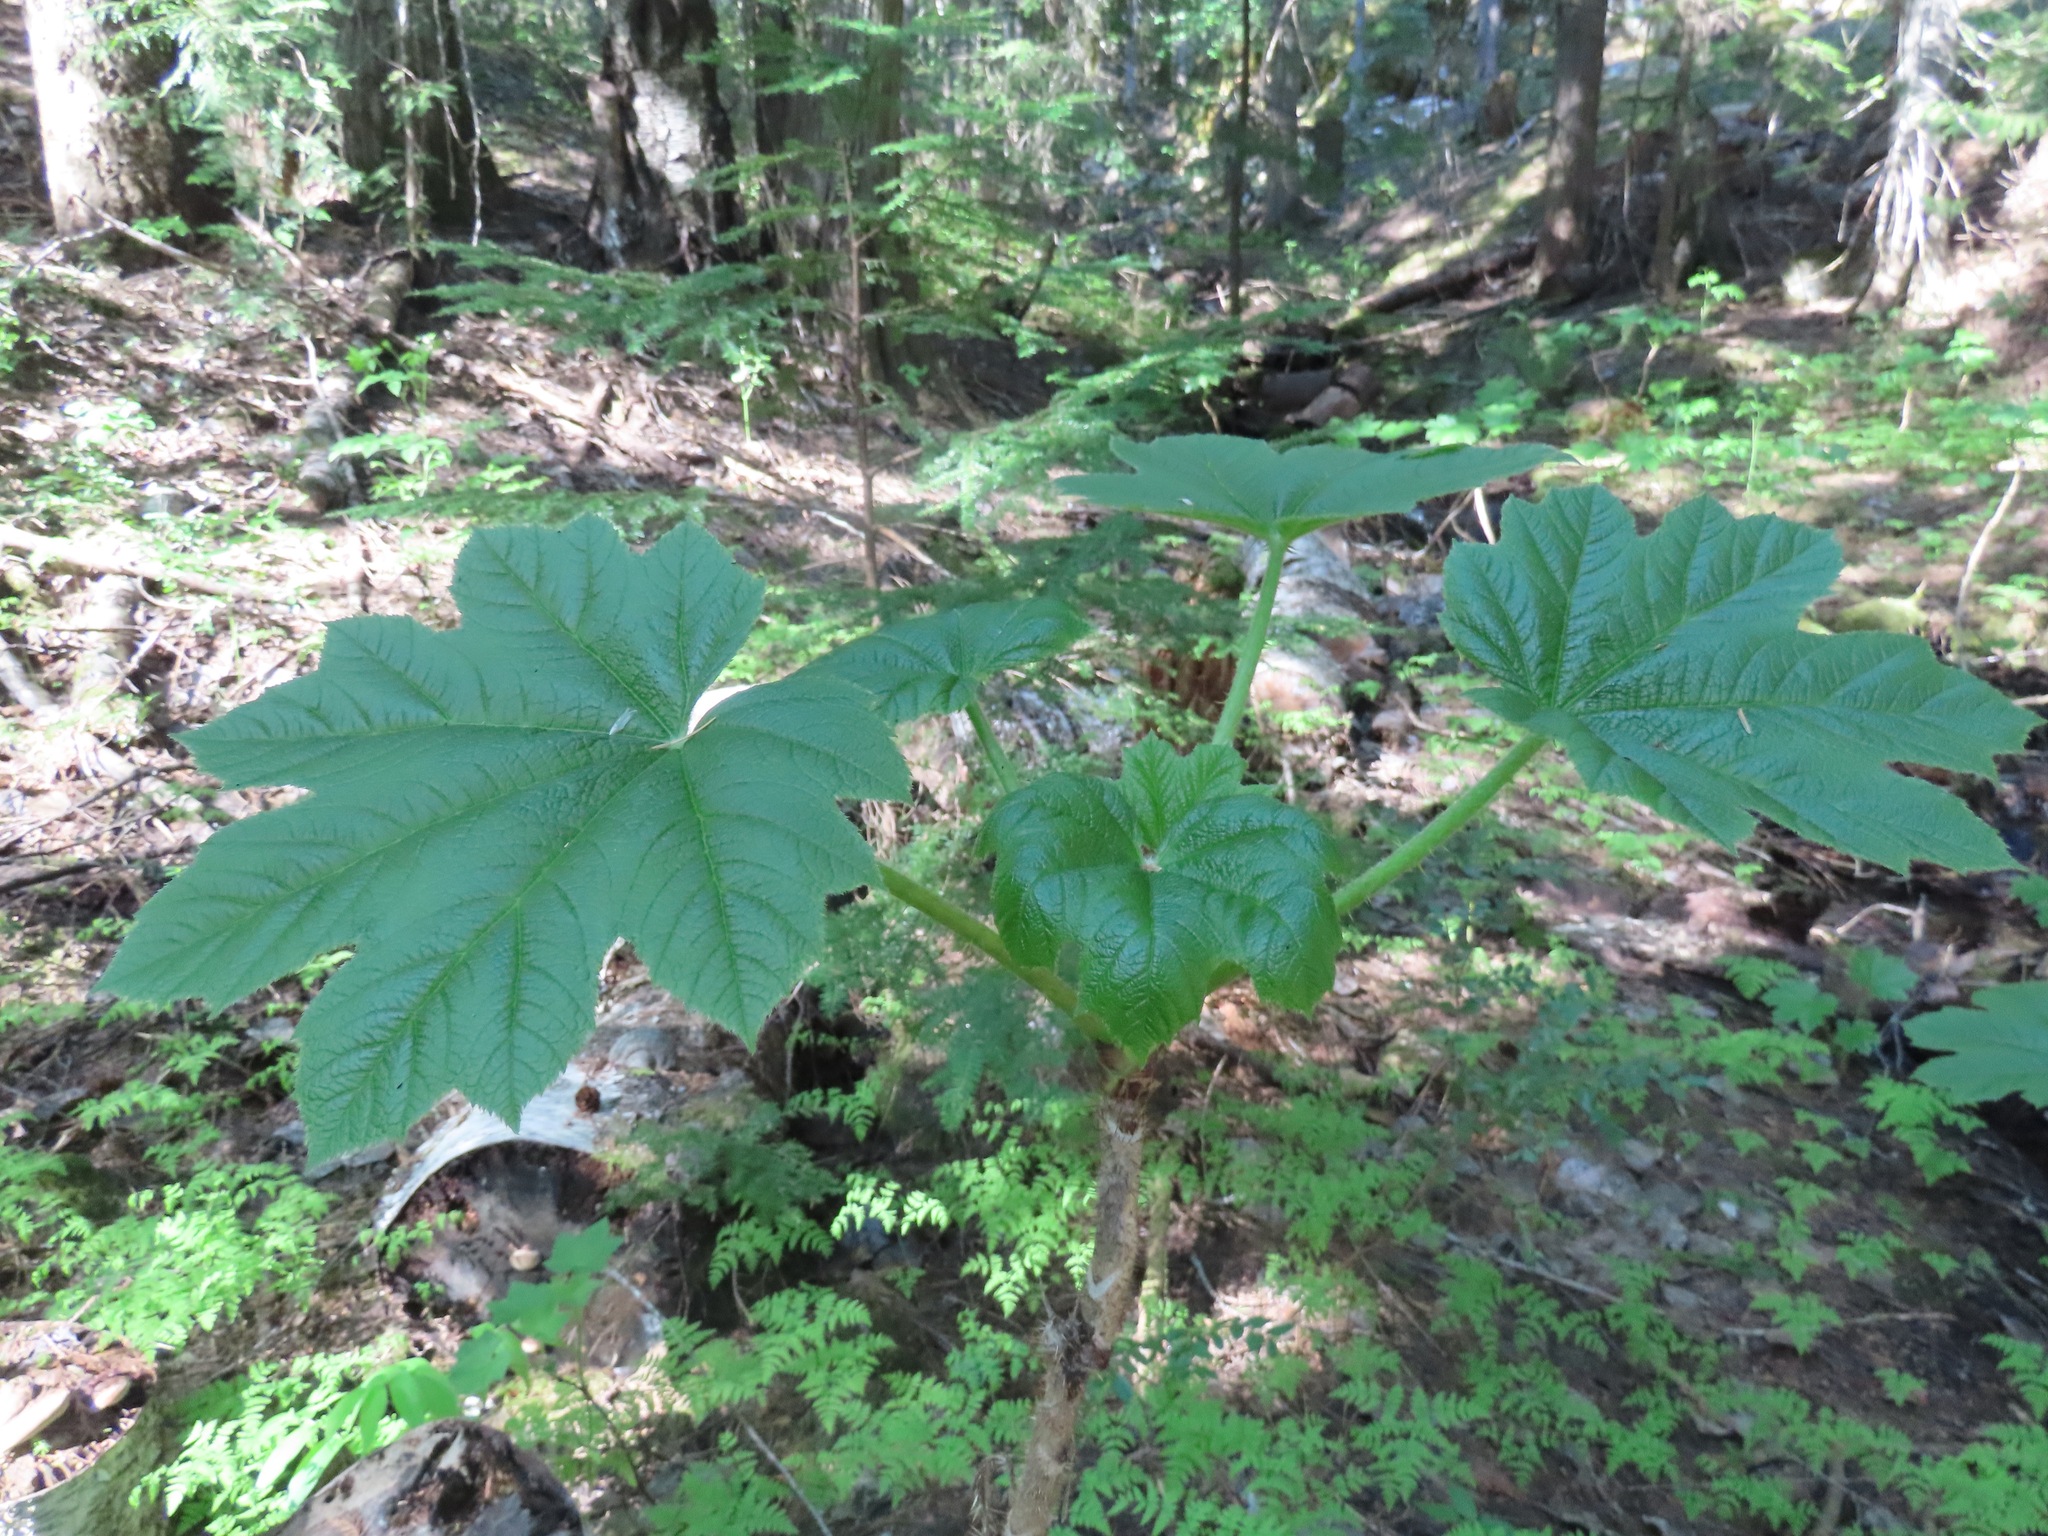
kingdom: Plantae
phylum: Tracheophyta
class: Magnoliopsida
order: Apiales
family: Araliaceae
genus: Oplopanax
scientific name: Oplopanax horridus
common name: Devil's walking-stick
